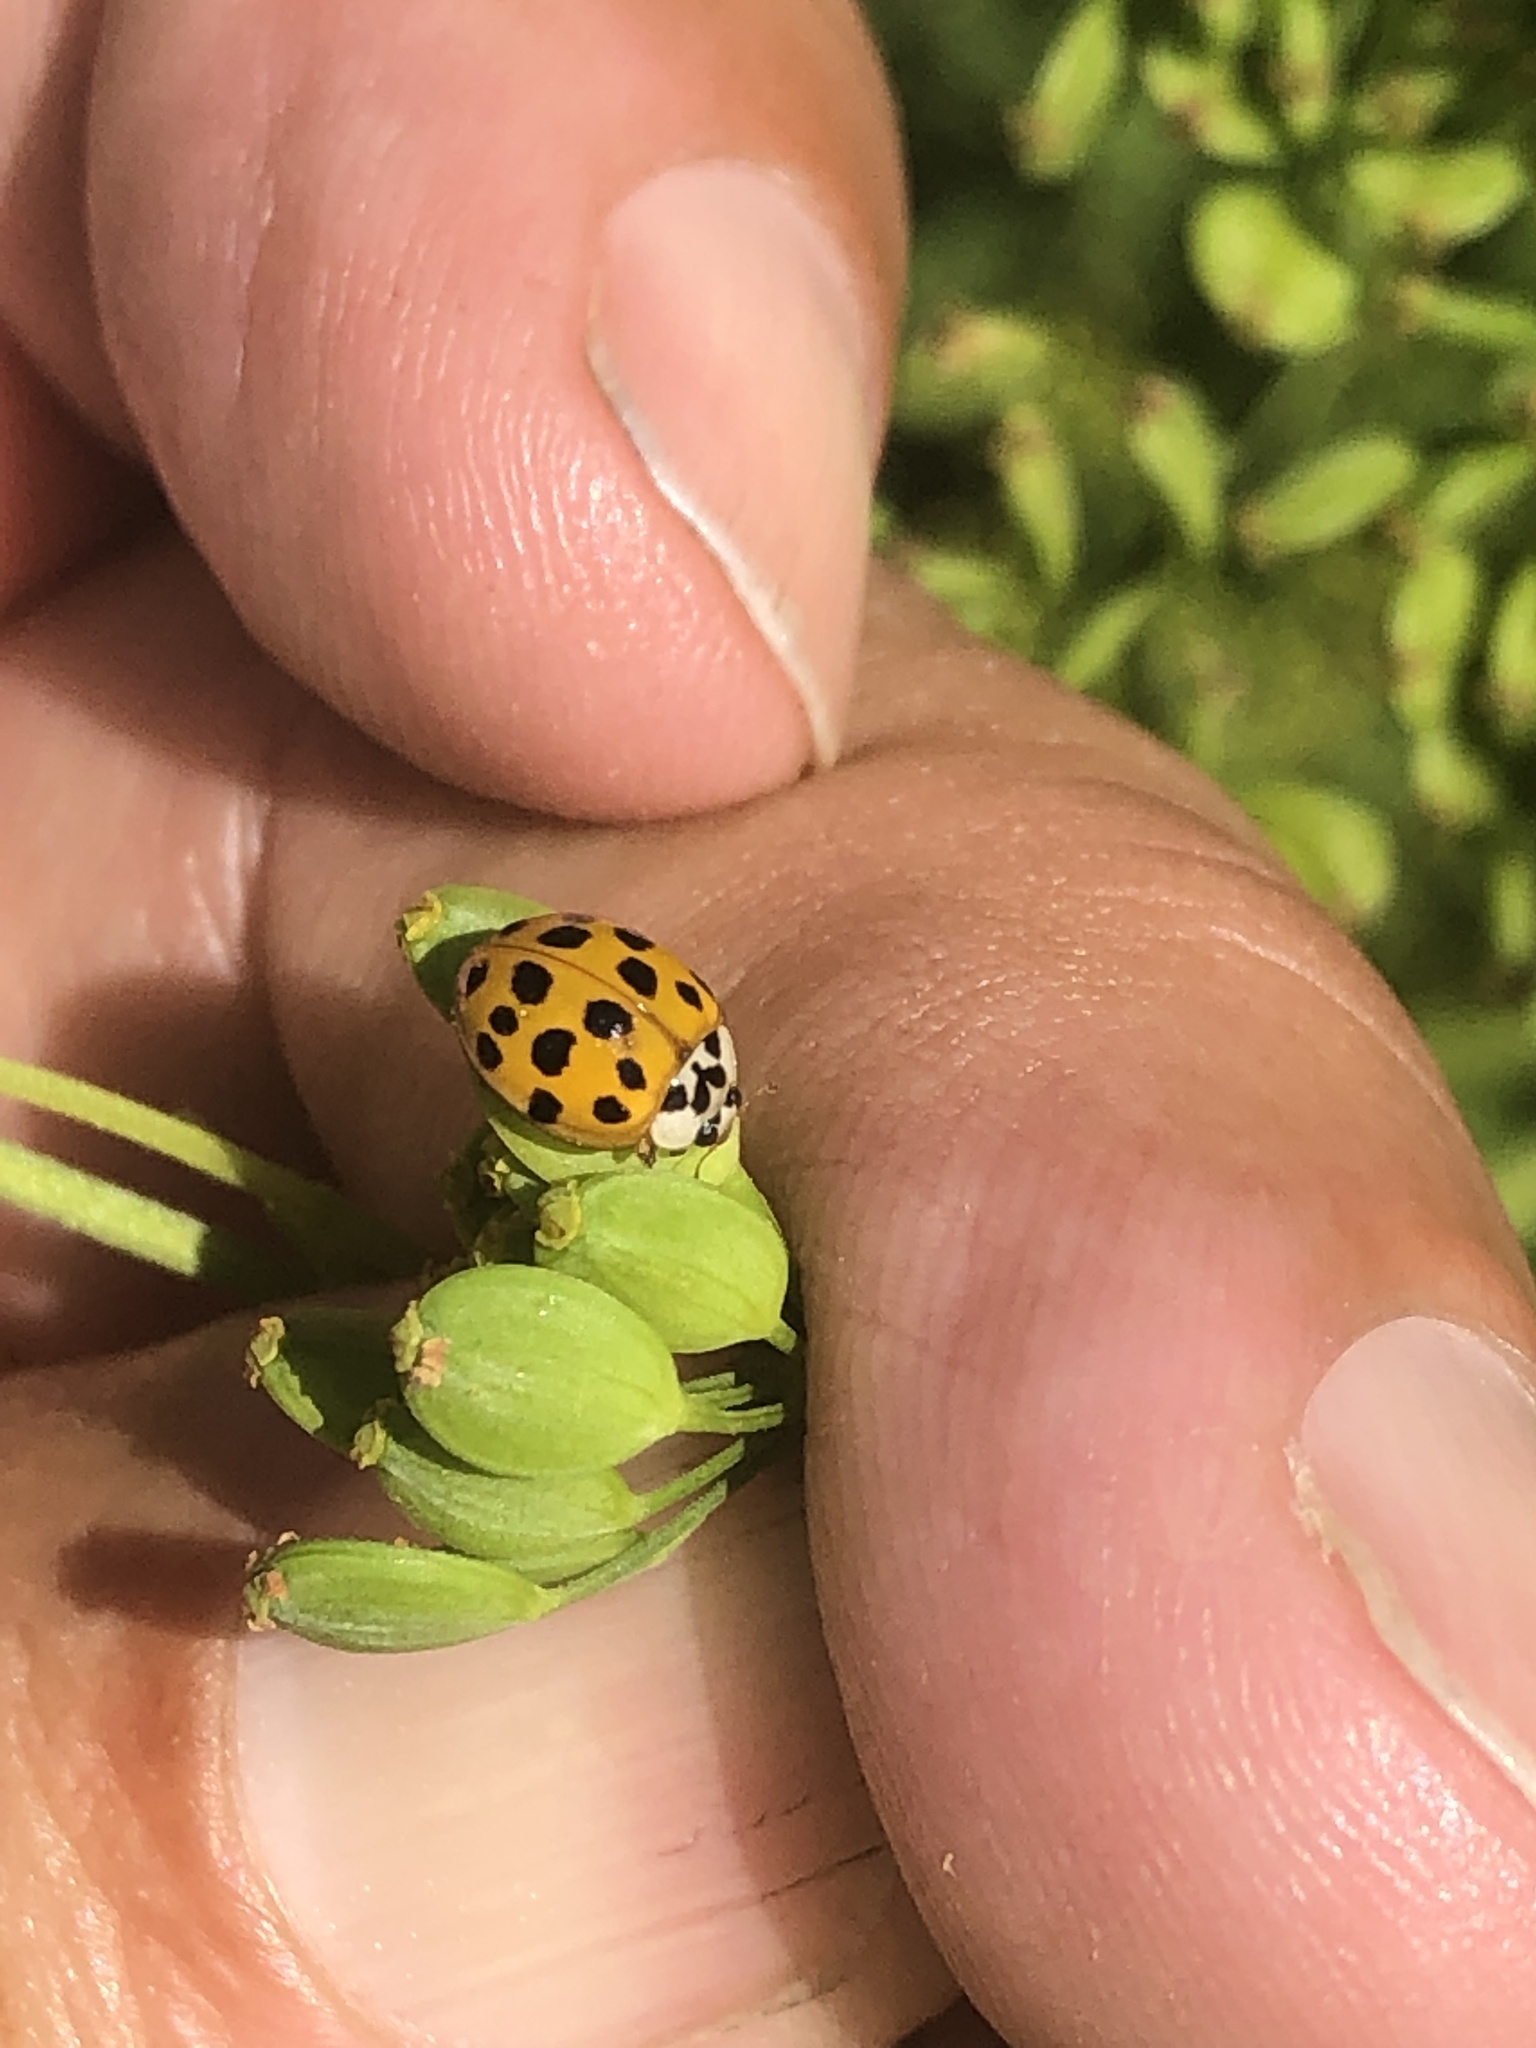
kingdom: Animalia
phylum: Arthropoda
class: Insecta
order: Coleoptera
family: Coccinellidae
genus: Harmonia
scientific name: Harmonia axyridis
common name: Harlequin ladybird
